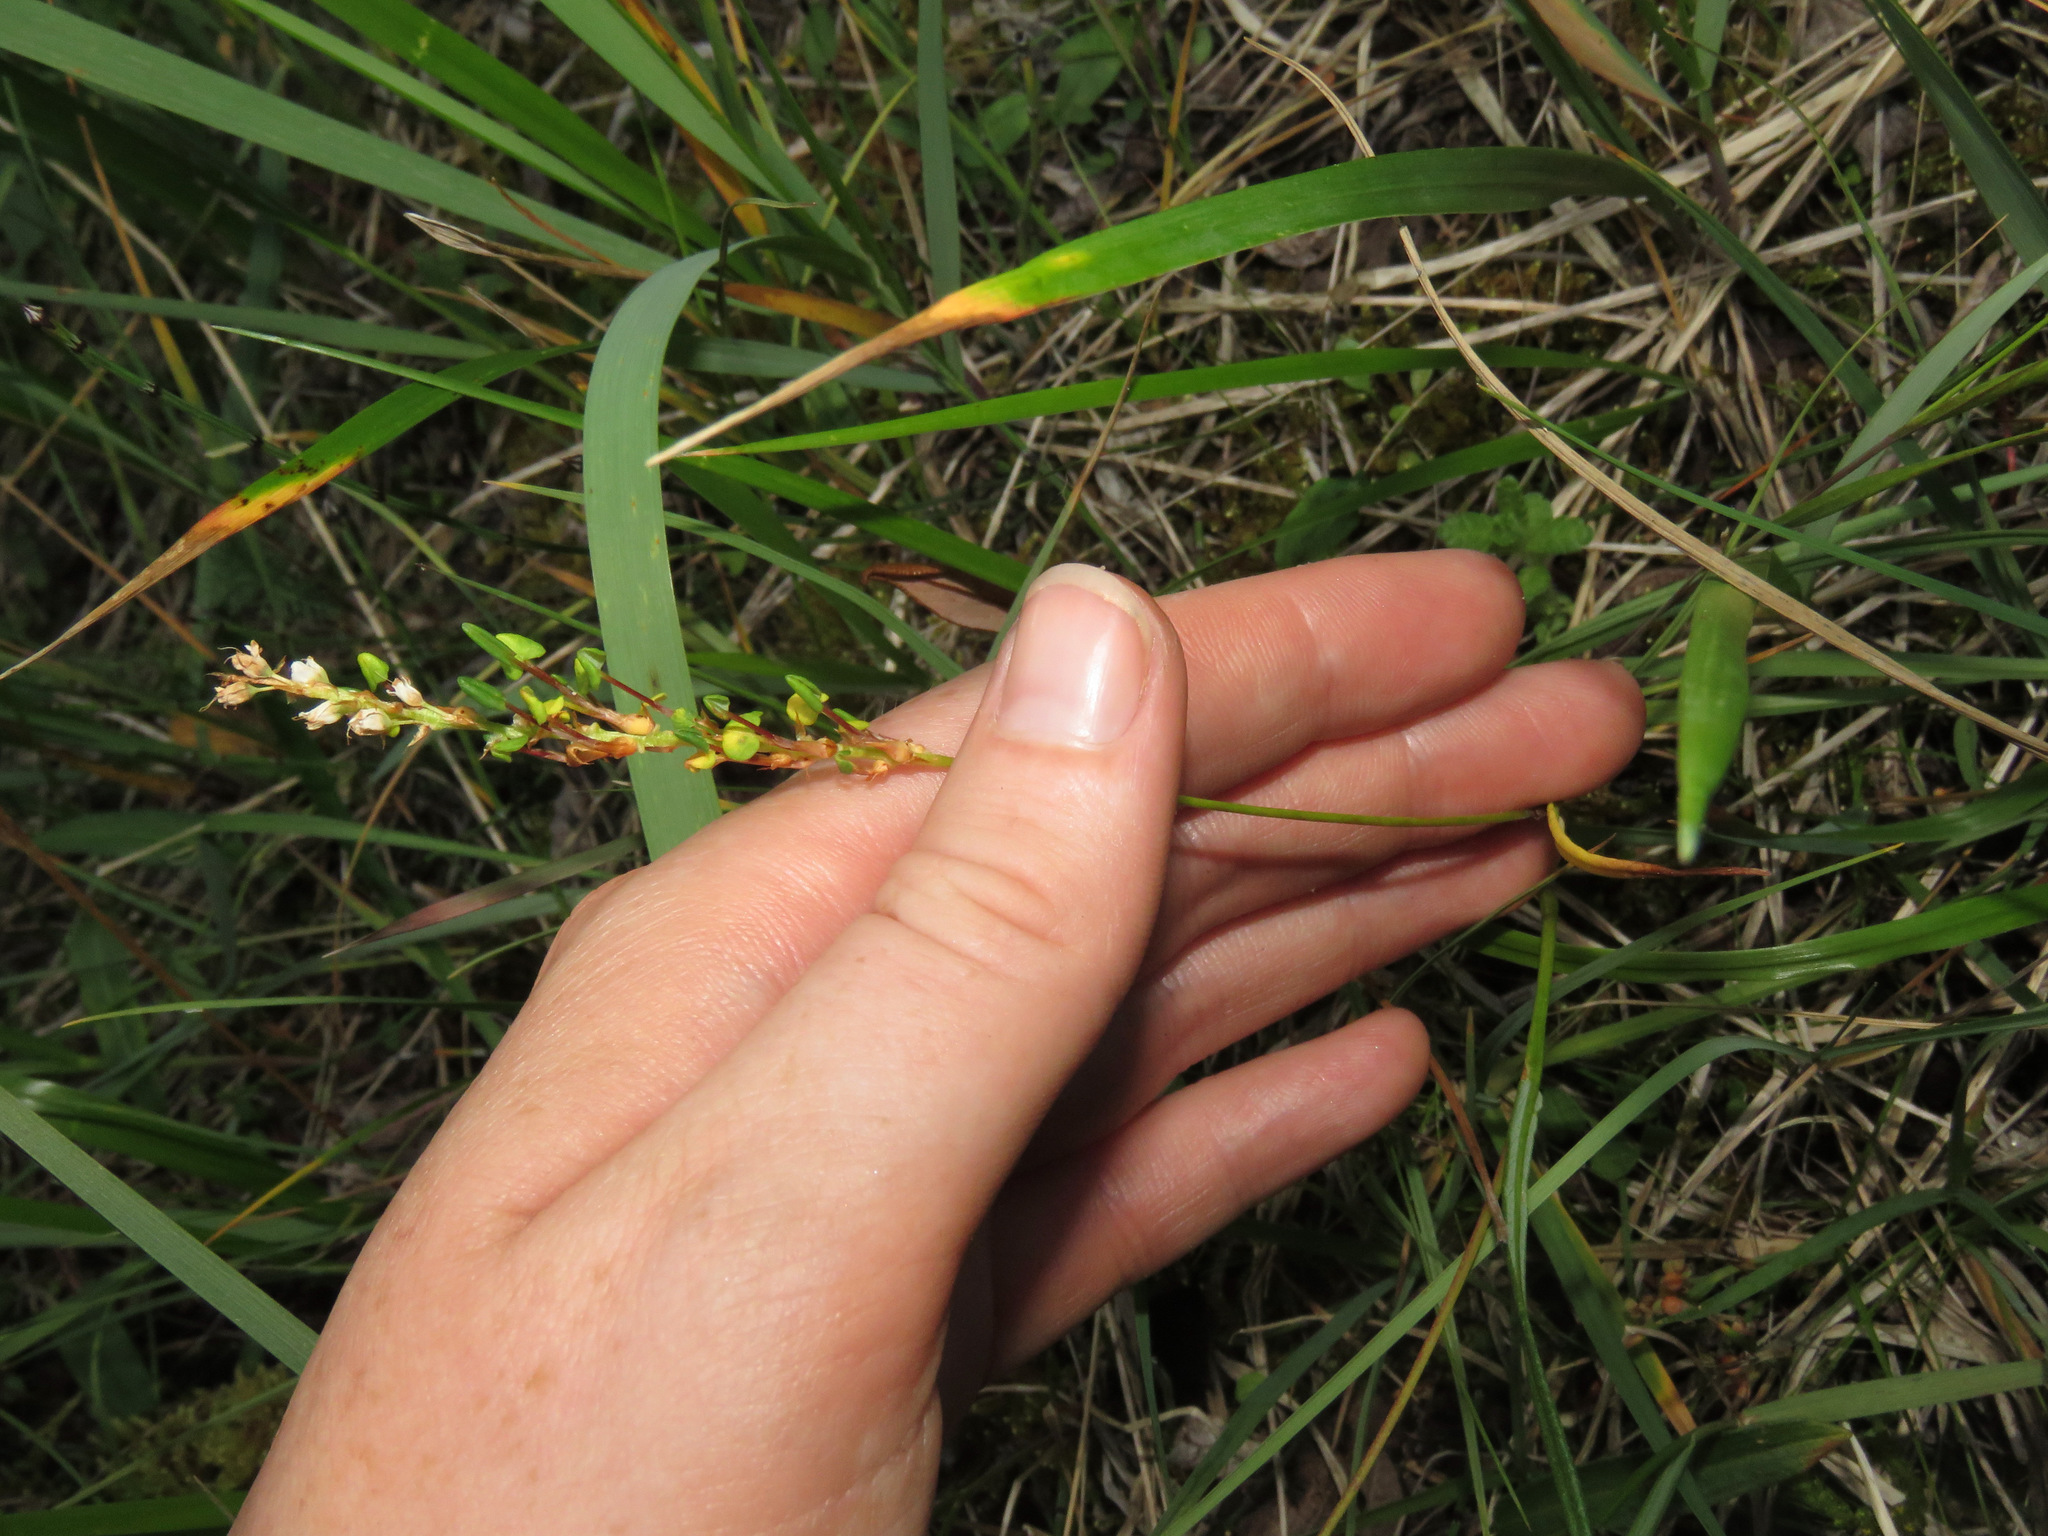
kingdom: Plantae
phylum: Tracheophyta
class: Magnoliopsida
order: Caryophyllales
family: Polygonaceae
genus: Bistorta
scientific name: Bistorta vivipara
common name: Alpine bistort
